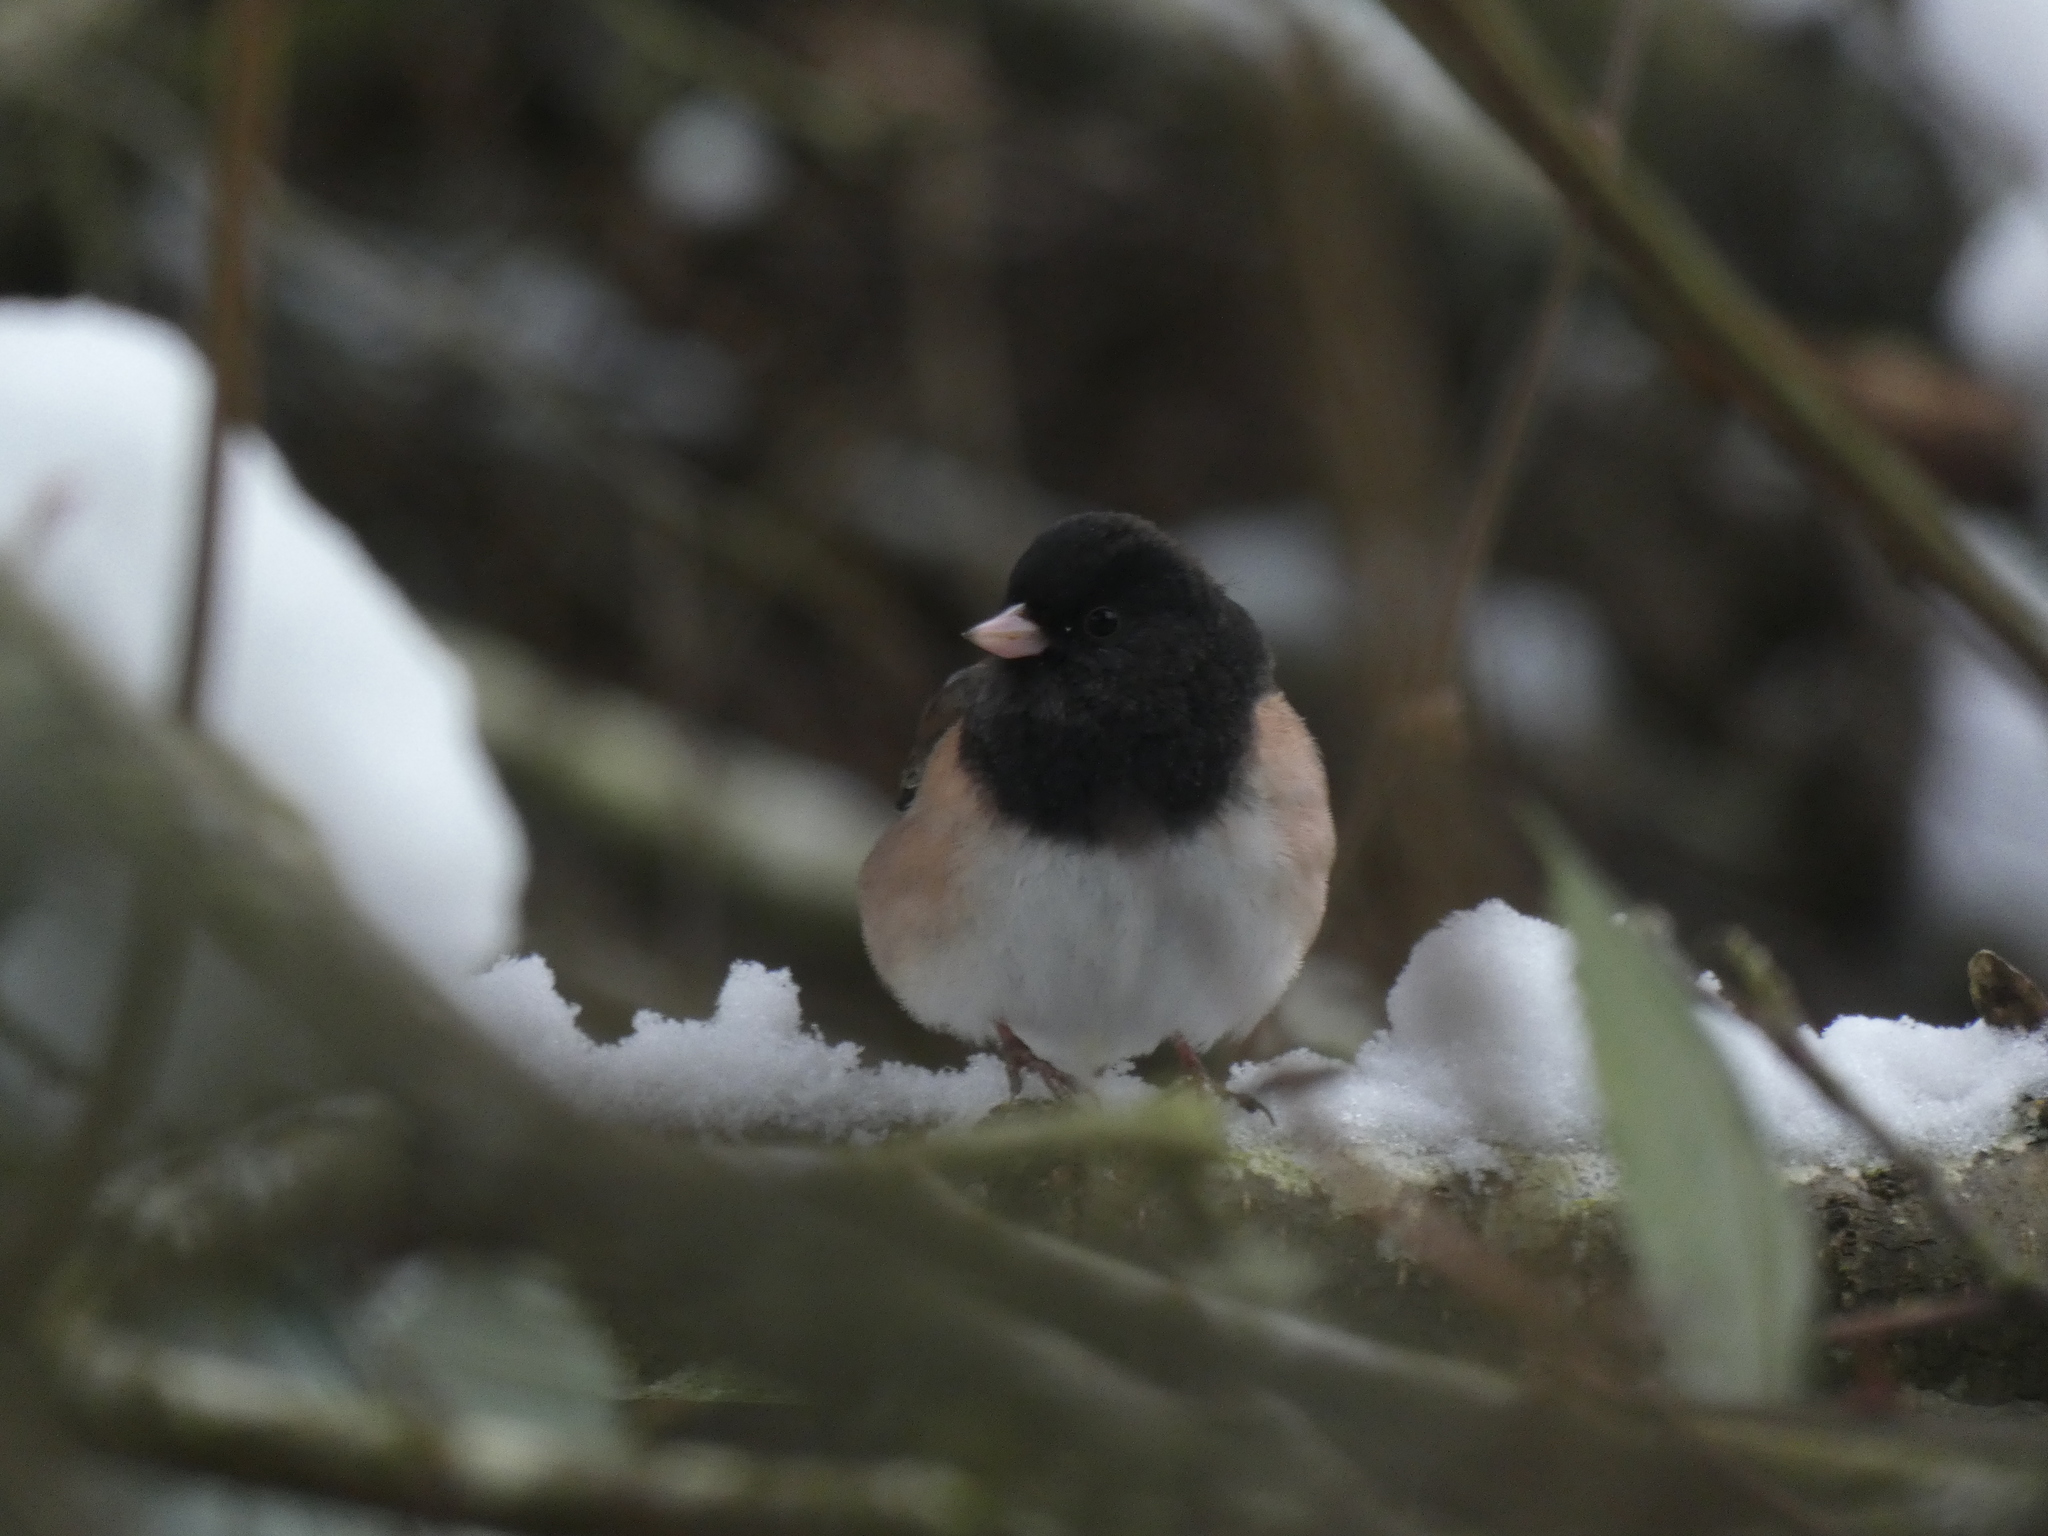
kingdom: Animalia
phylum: Chordata
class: Aves
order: Passeriformes
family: Passerellidae
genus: Junco
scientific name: Junco hyemalis
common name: Dark-eyed junco
